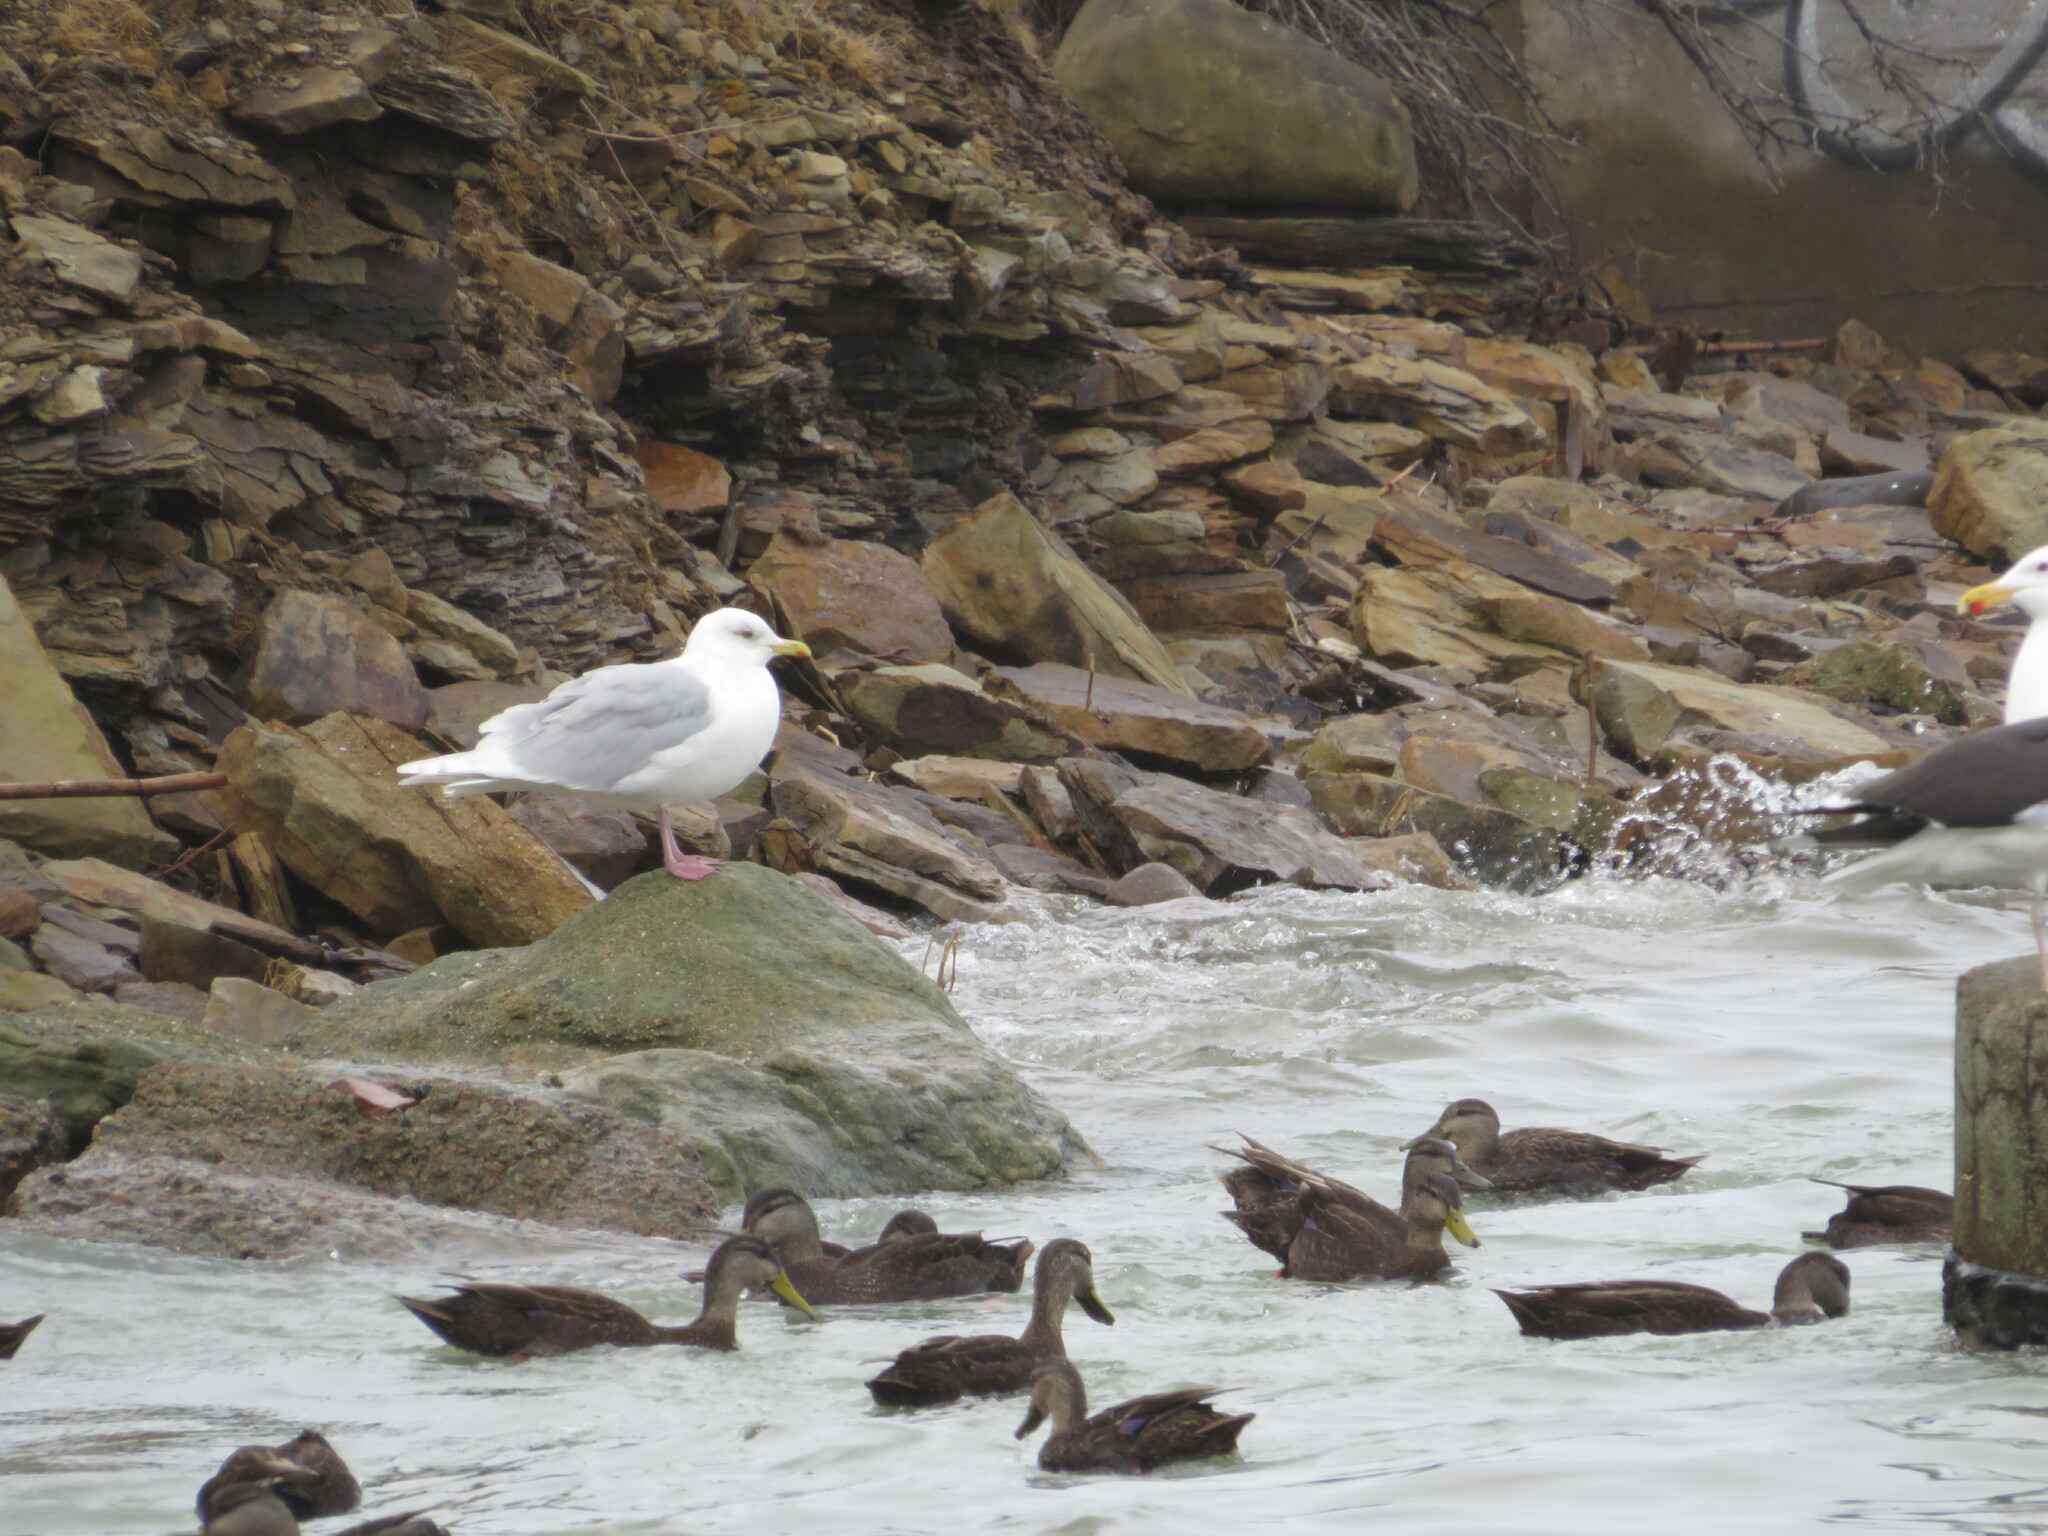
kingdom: Animalia
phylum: Chordata
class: Aves
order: Charadriiformes
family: Laridae
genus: Larus
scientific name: Larus glaucoides
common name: Iceland gull
